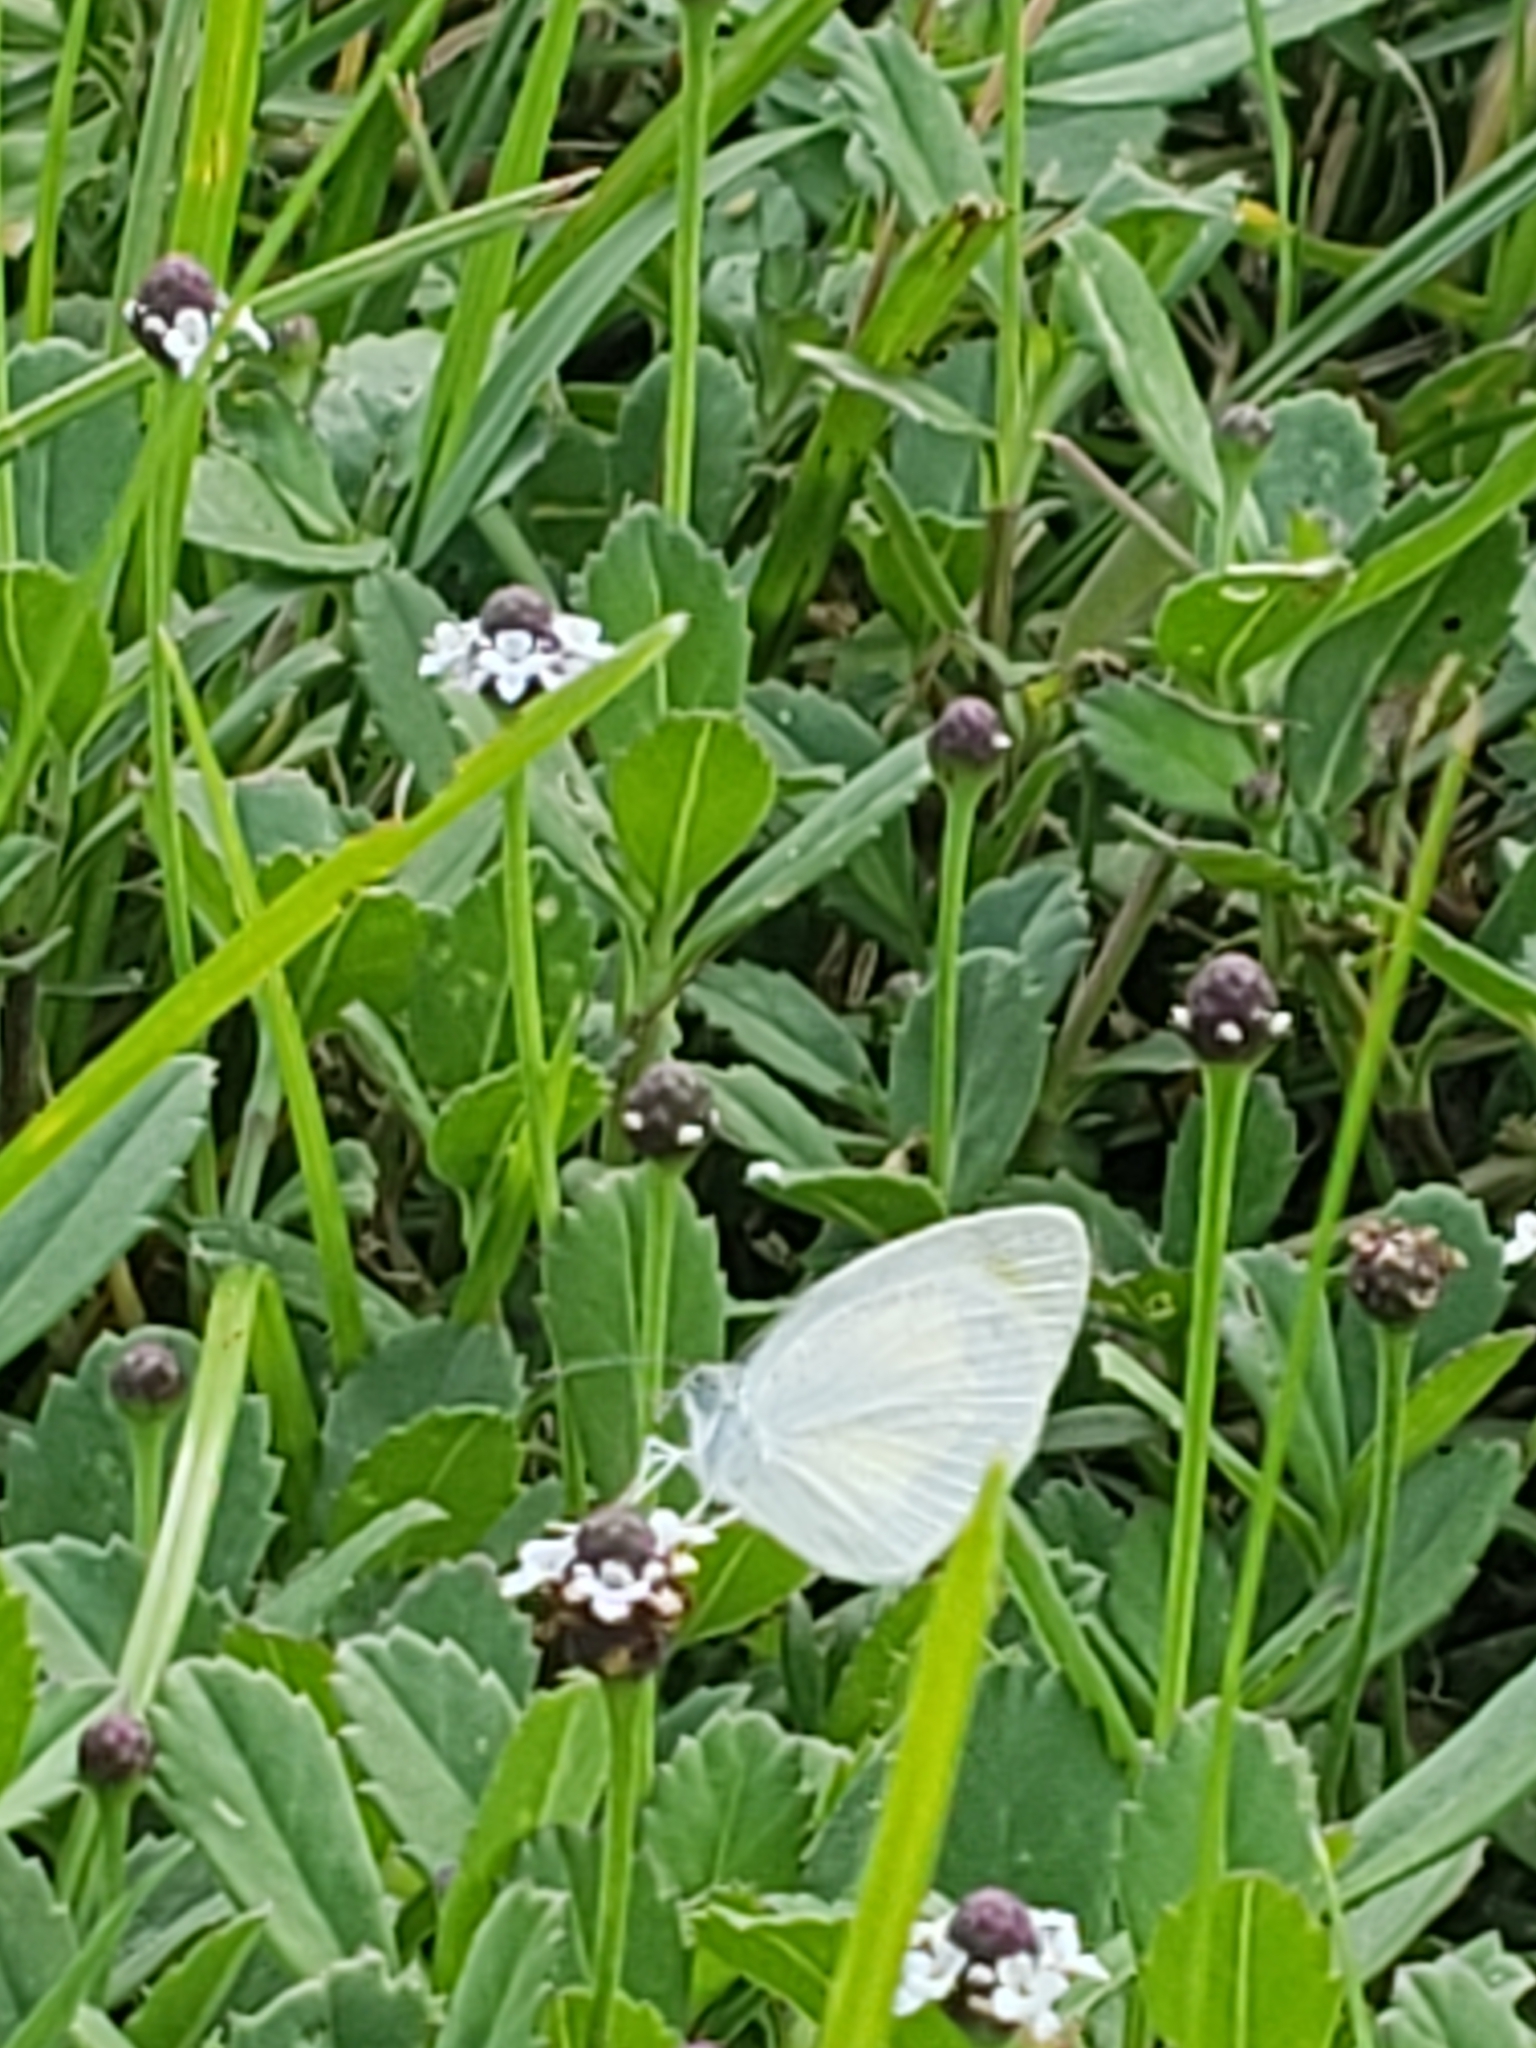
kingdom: Animalia
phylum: Arthropoda
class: Insecta
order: Lepidoptera
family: Pieridae
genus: Eurema
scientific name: Eurema daira
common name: Barred sulphur
